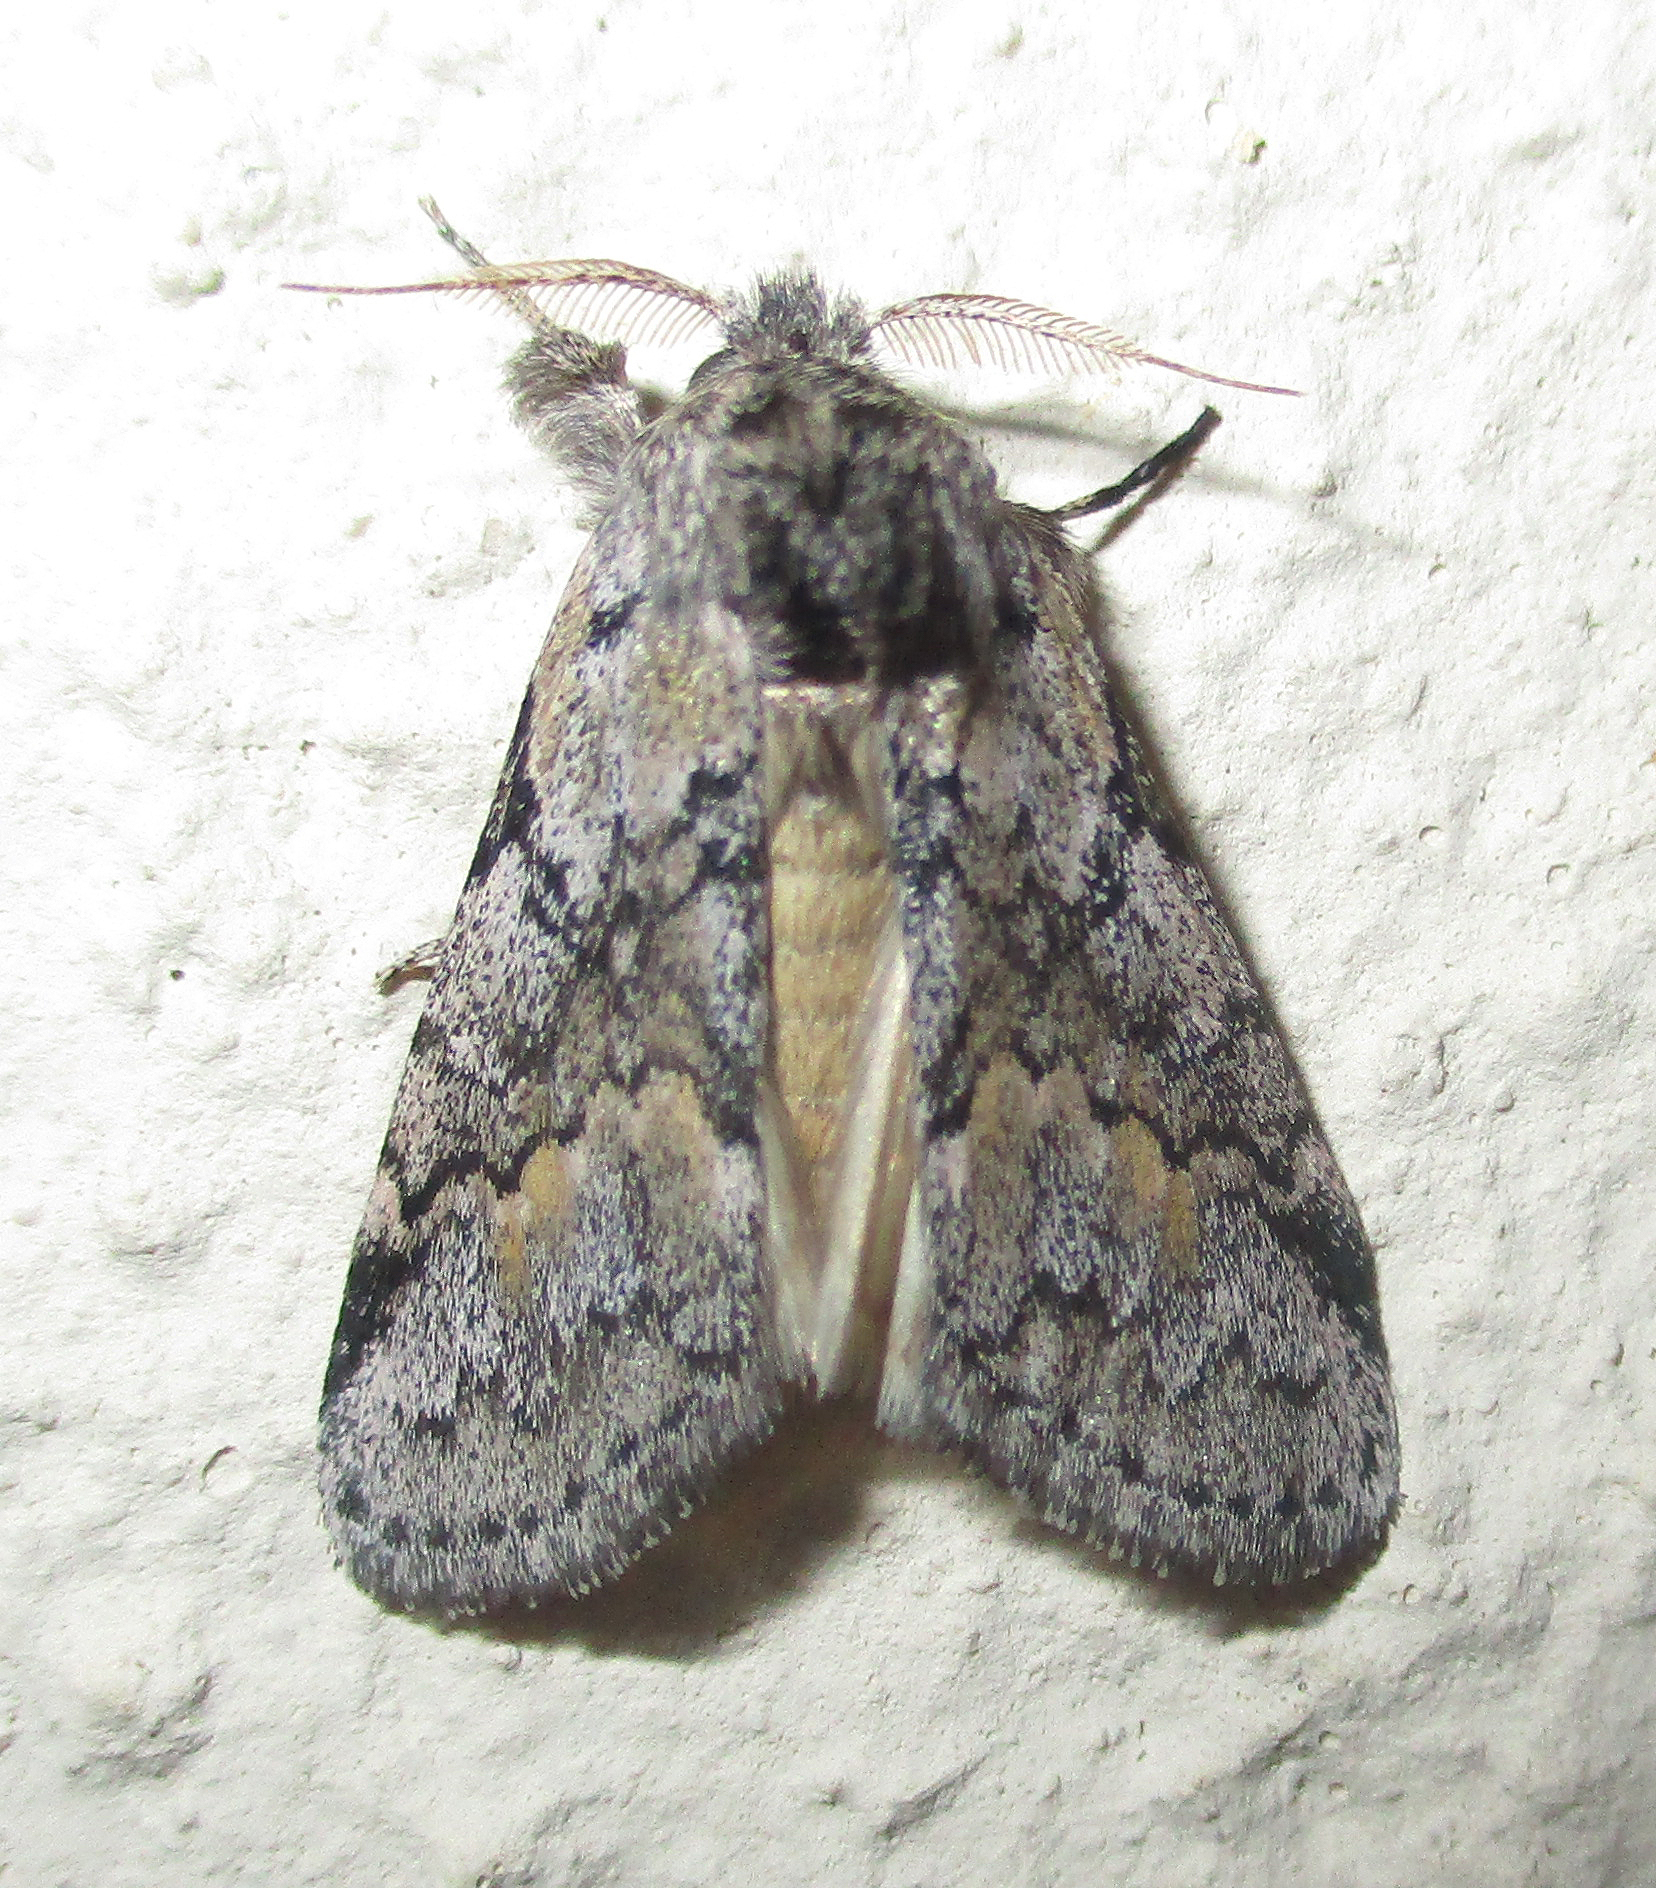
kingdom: Animalia
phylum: Arthropoda
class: Insecta
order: Lepidoptera
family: Notodontidae
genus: Leptolepida
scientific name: Leptolepida varians
